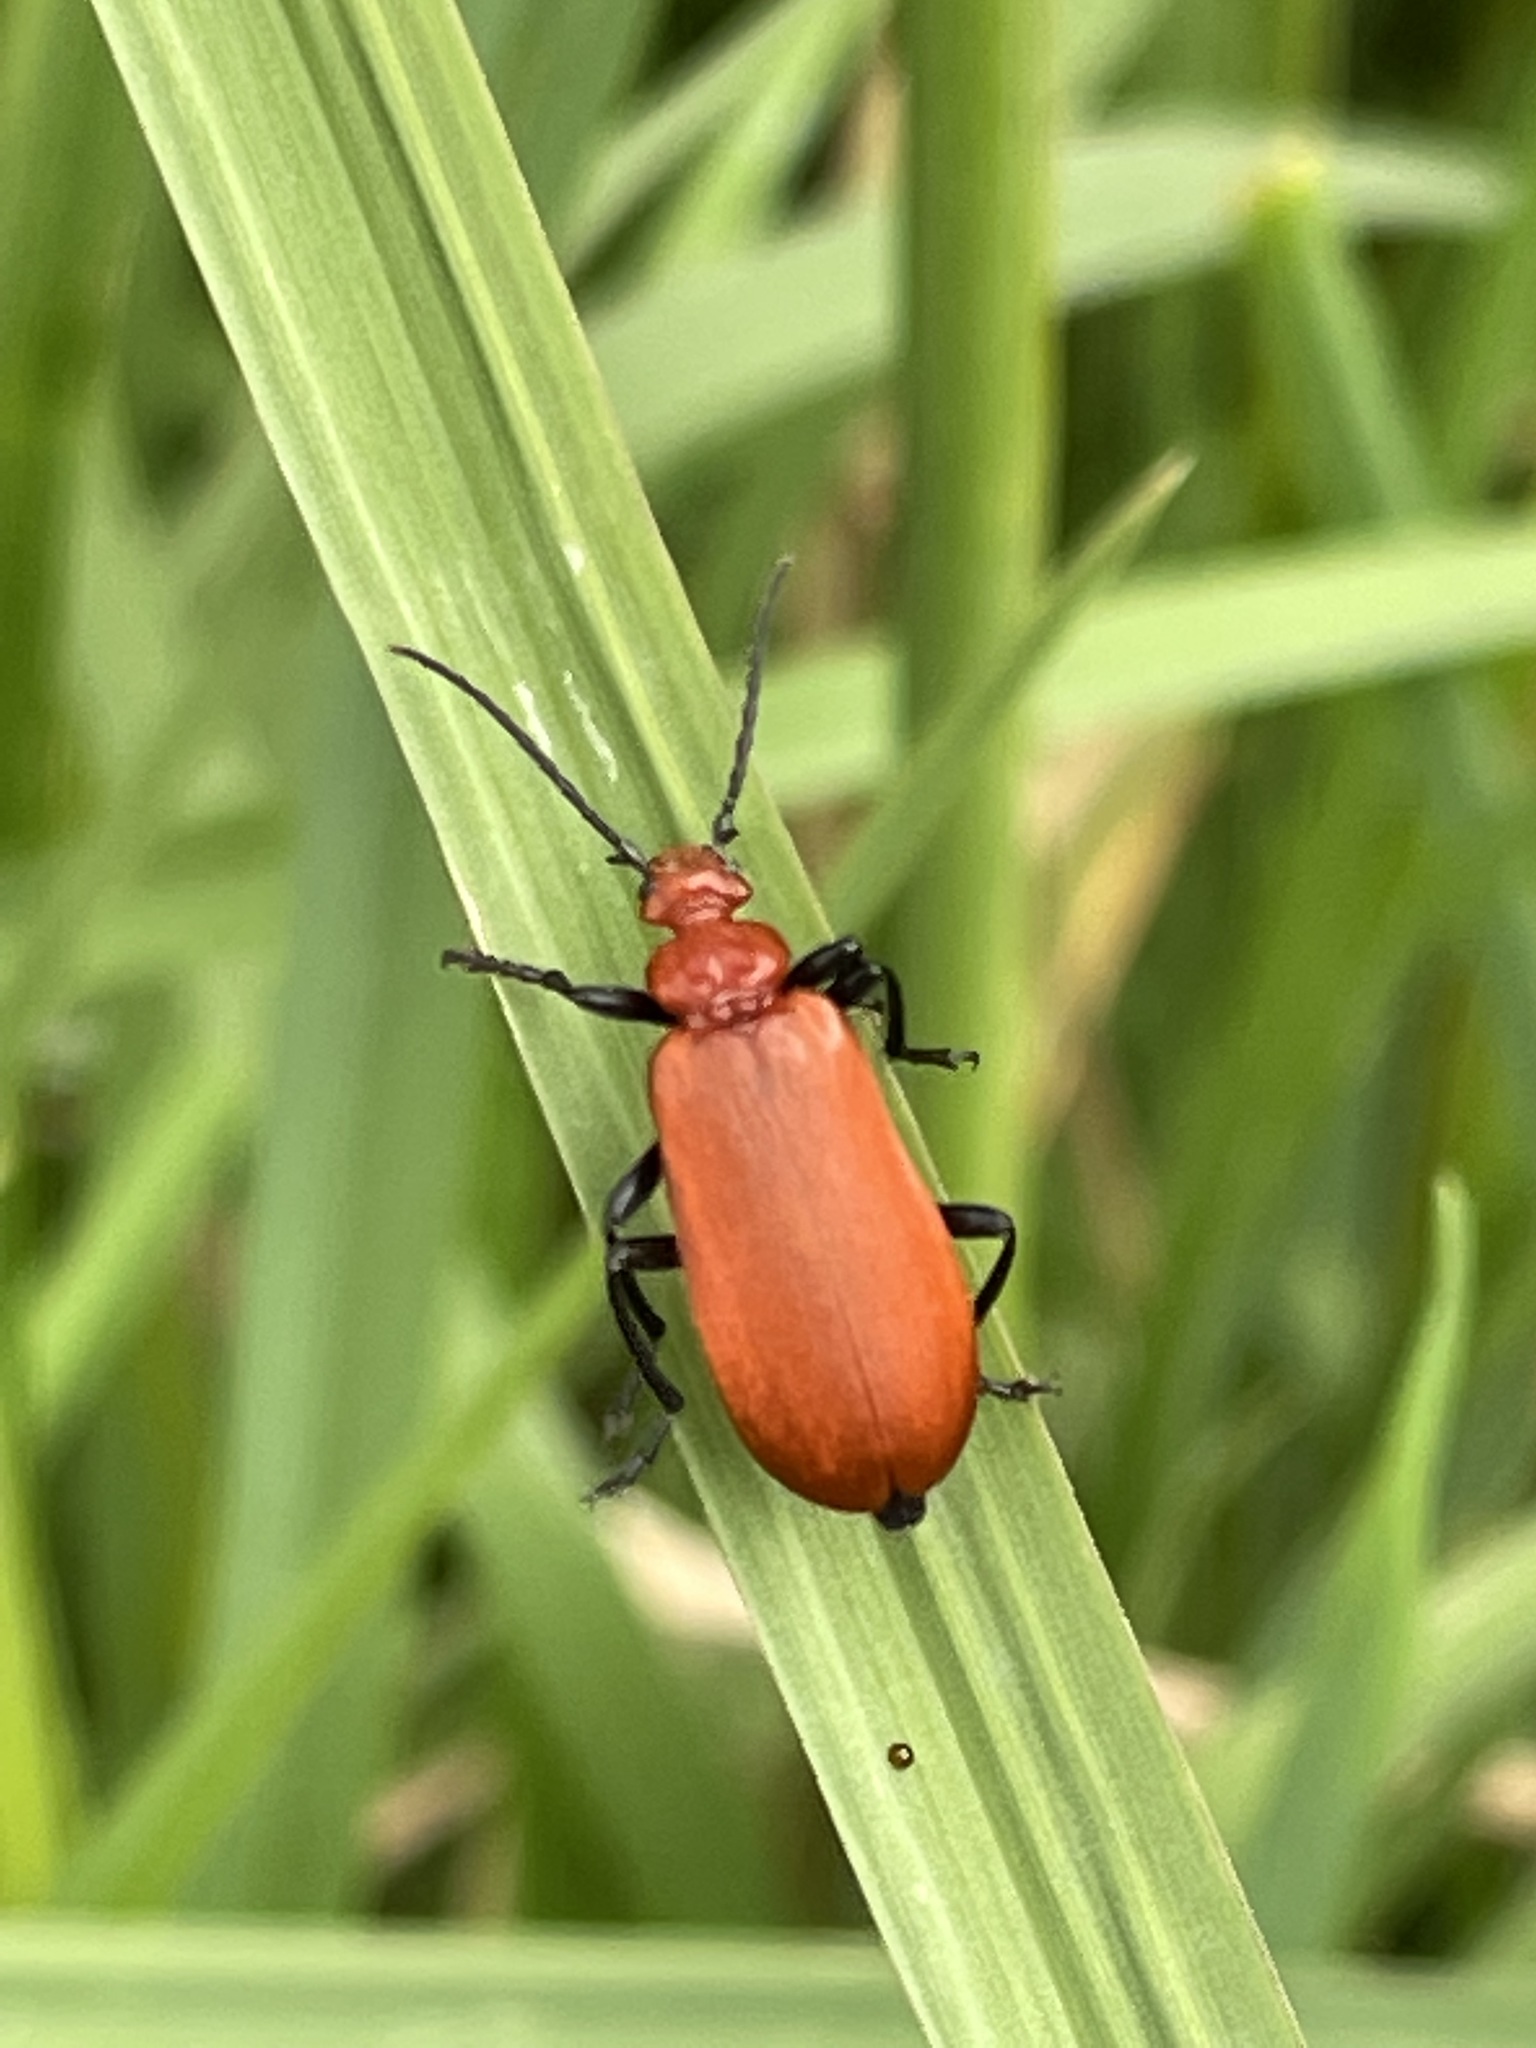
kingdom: Animalia
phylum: Arthropoda
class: Insecta
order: Coleoptera
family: Pyrochroidae
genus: Pyrochroa
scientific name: Pyrochroa serraticornis
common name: Red-headed cardinal beetle
